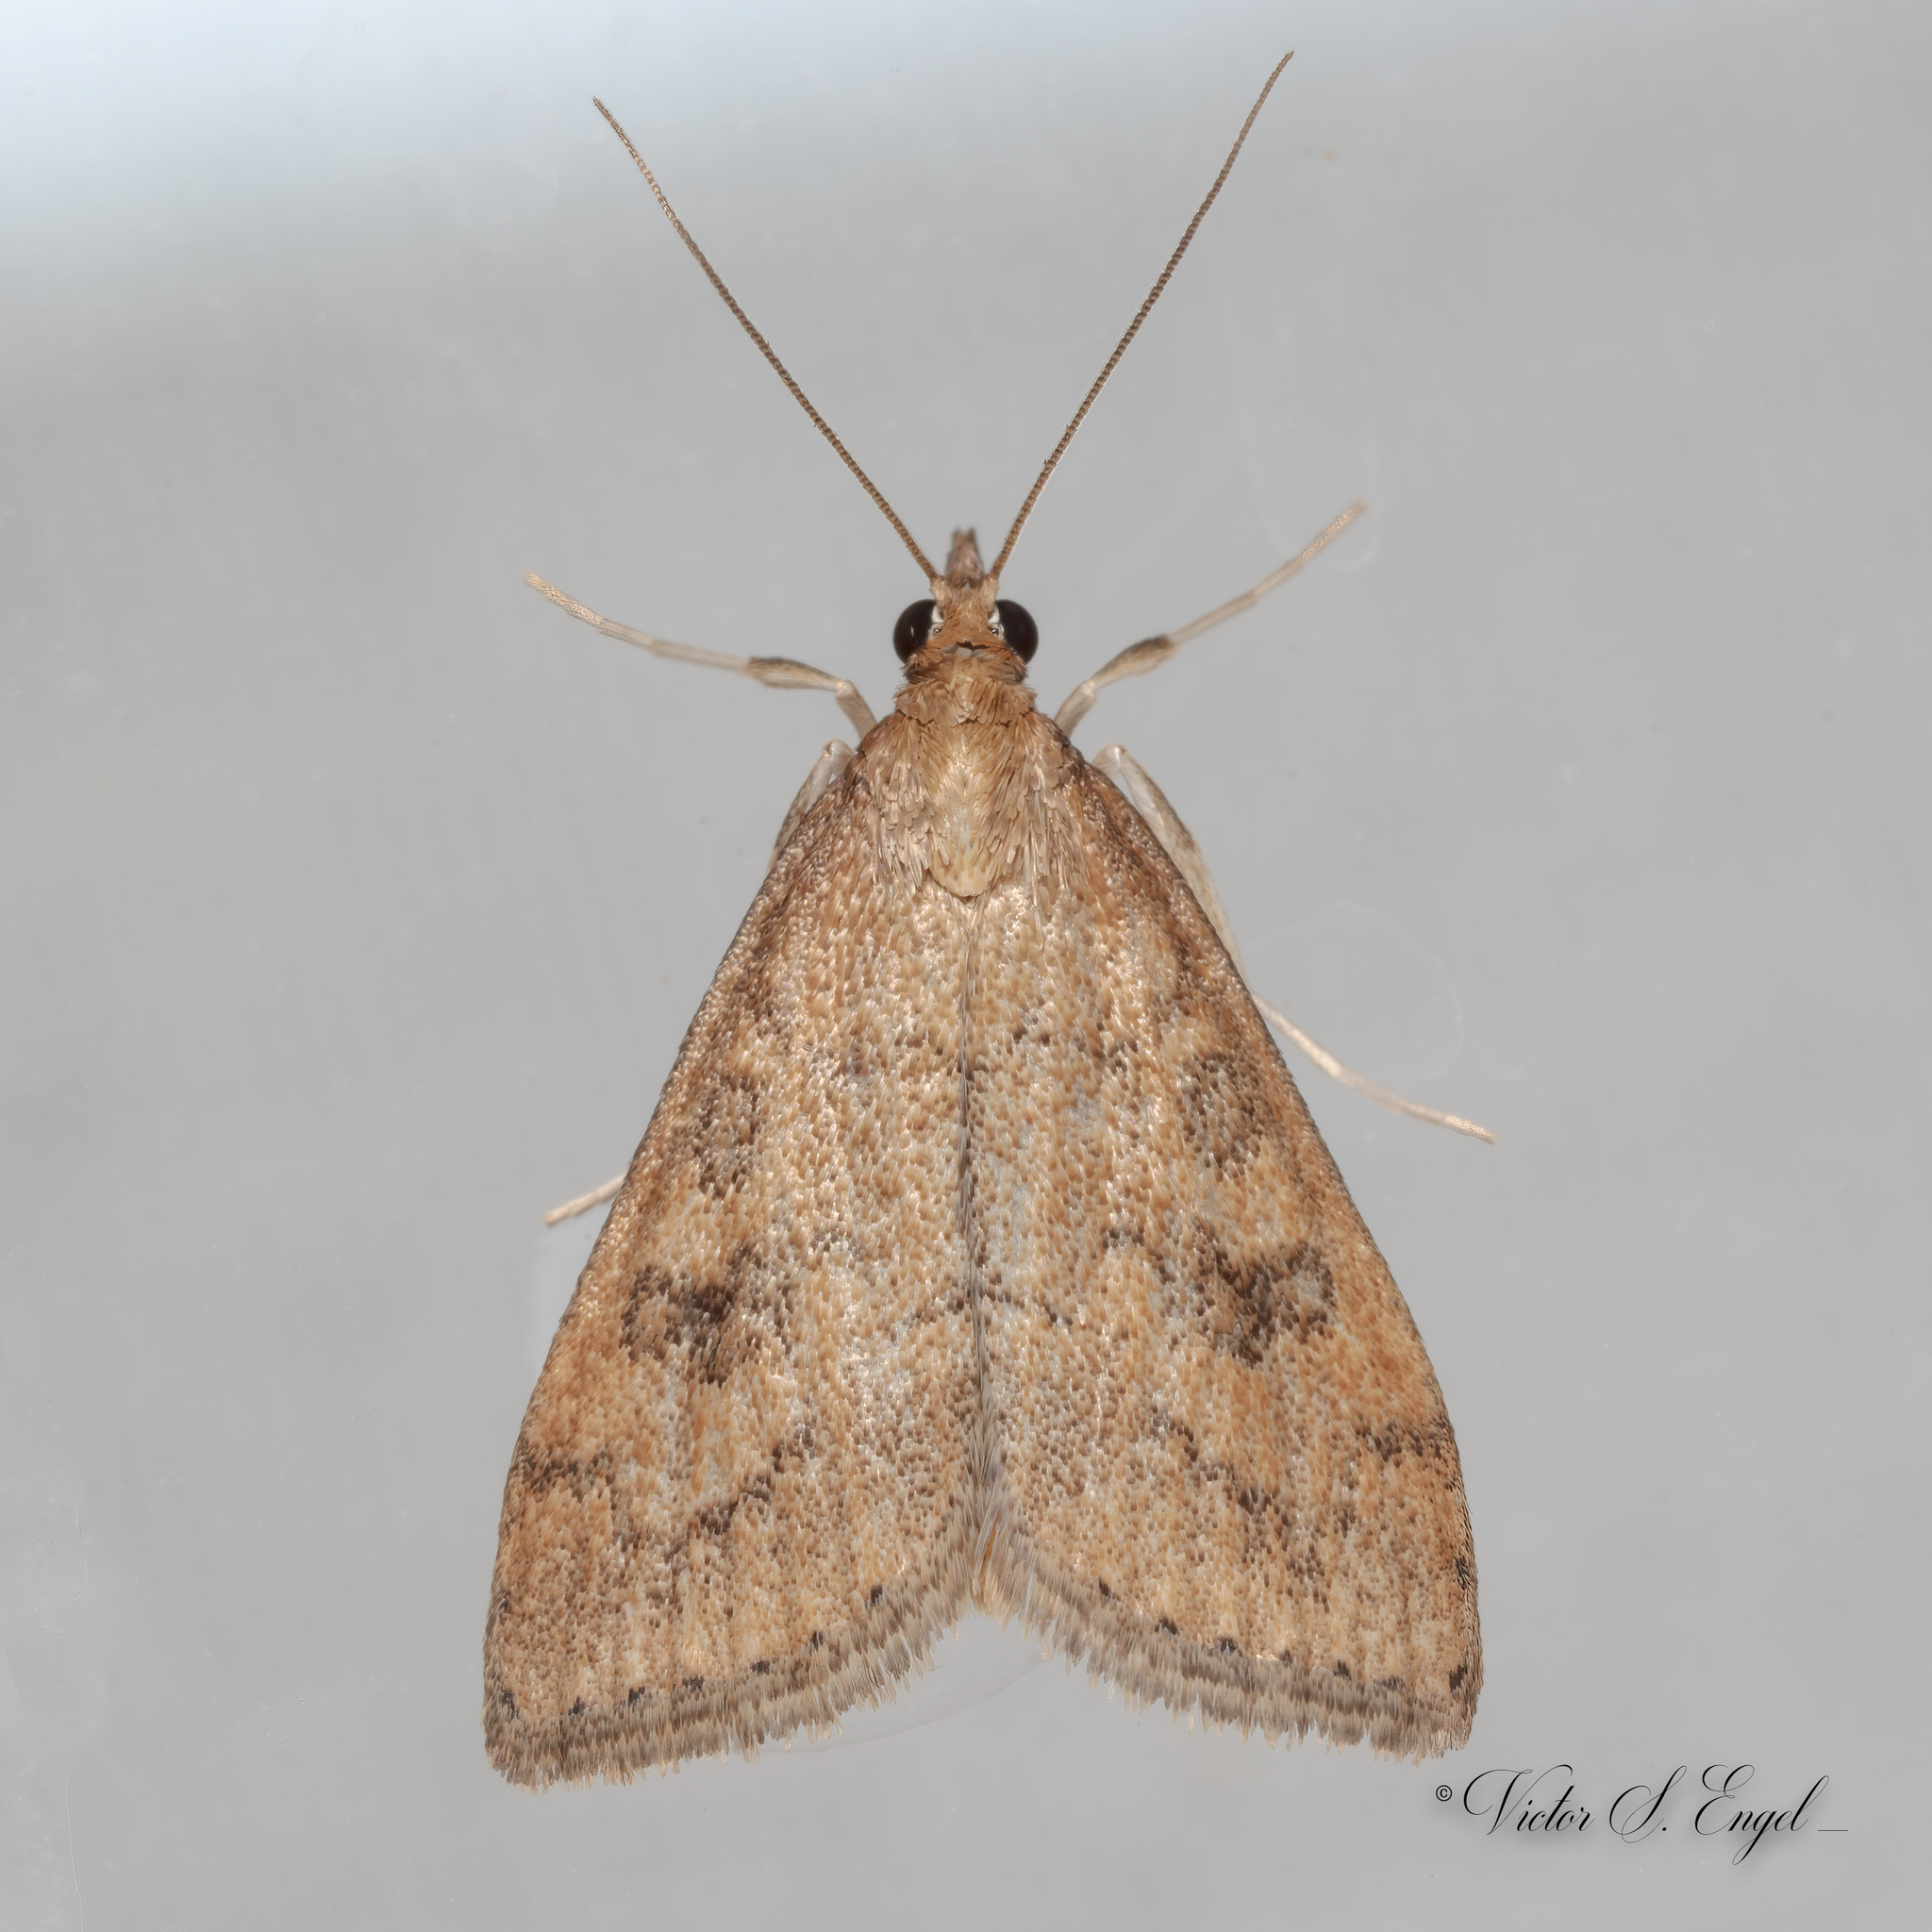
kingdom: Animalia
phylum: Arthropoda
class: Insecta
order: Lepidoptera
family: Crambidae
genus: Udea
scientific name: Udea rubigalis
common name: Celery leaftier moth
